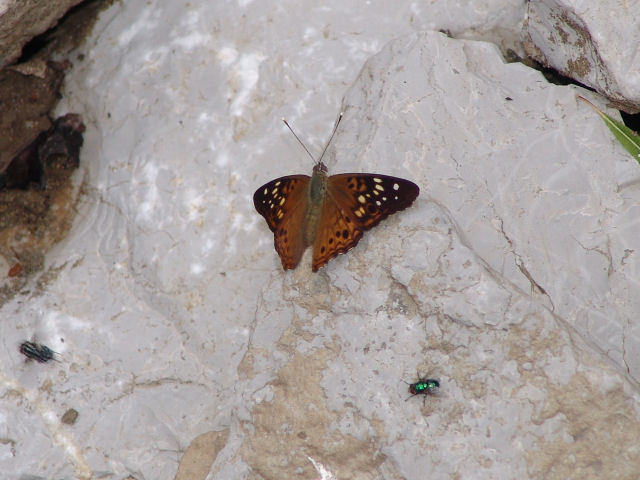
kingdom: Animalia
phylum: Arthropoda
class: Insecta
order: Lepidoptera
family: Nymphalidae
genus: Asterocampa
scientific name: Asterocampa celtis
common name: Hackberry emperor
